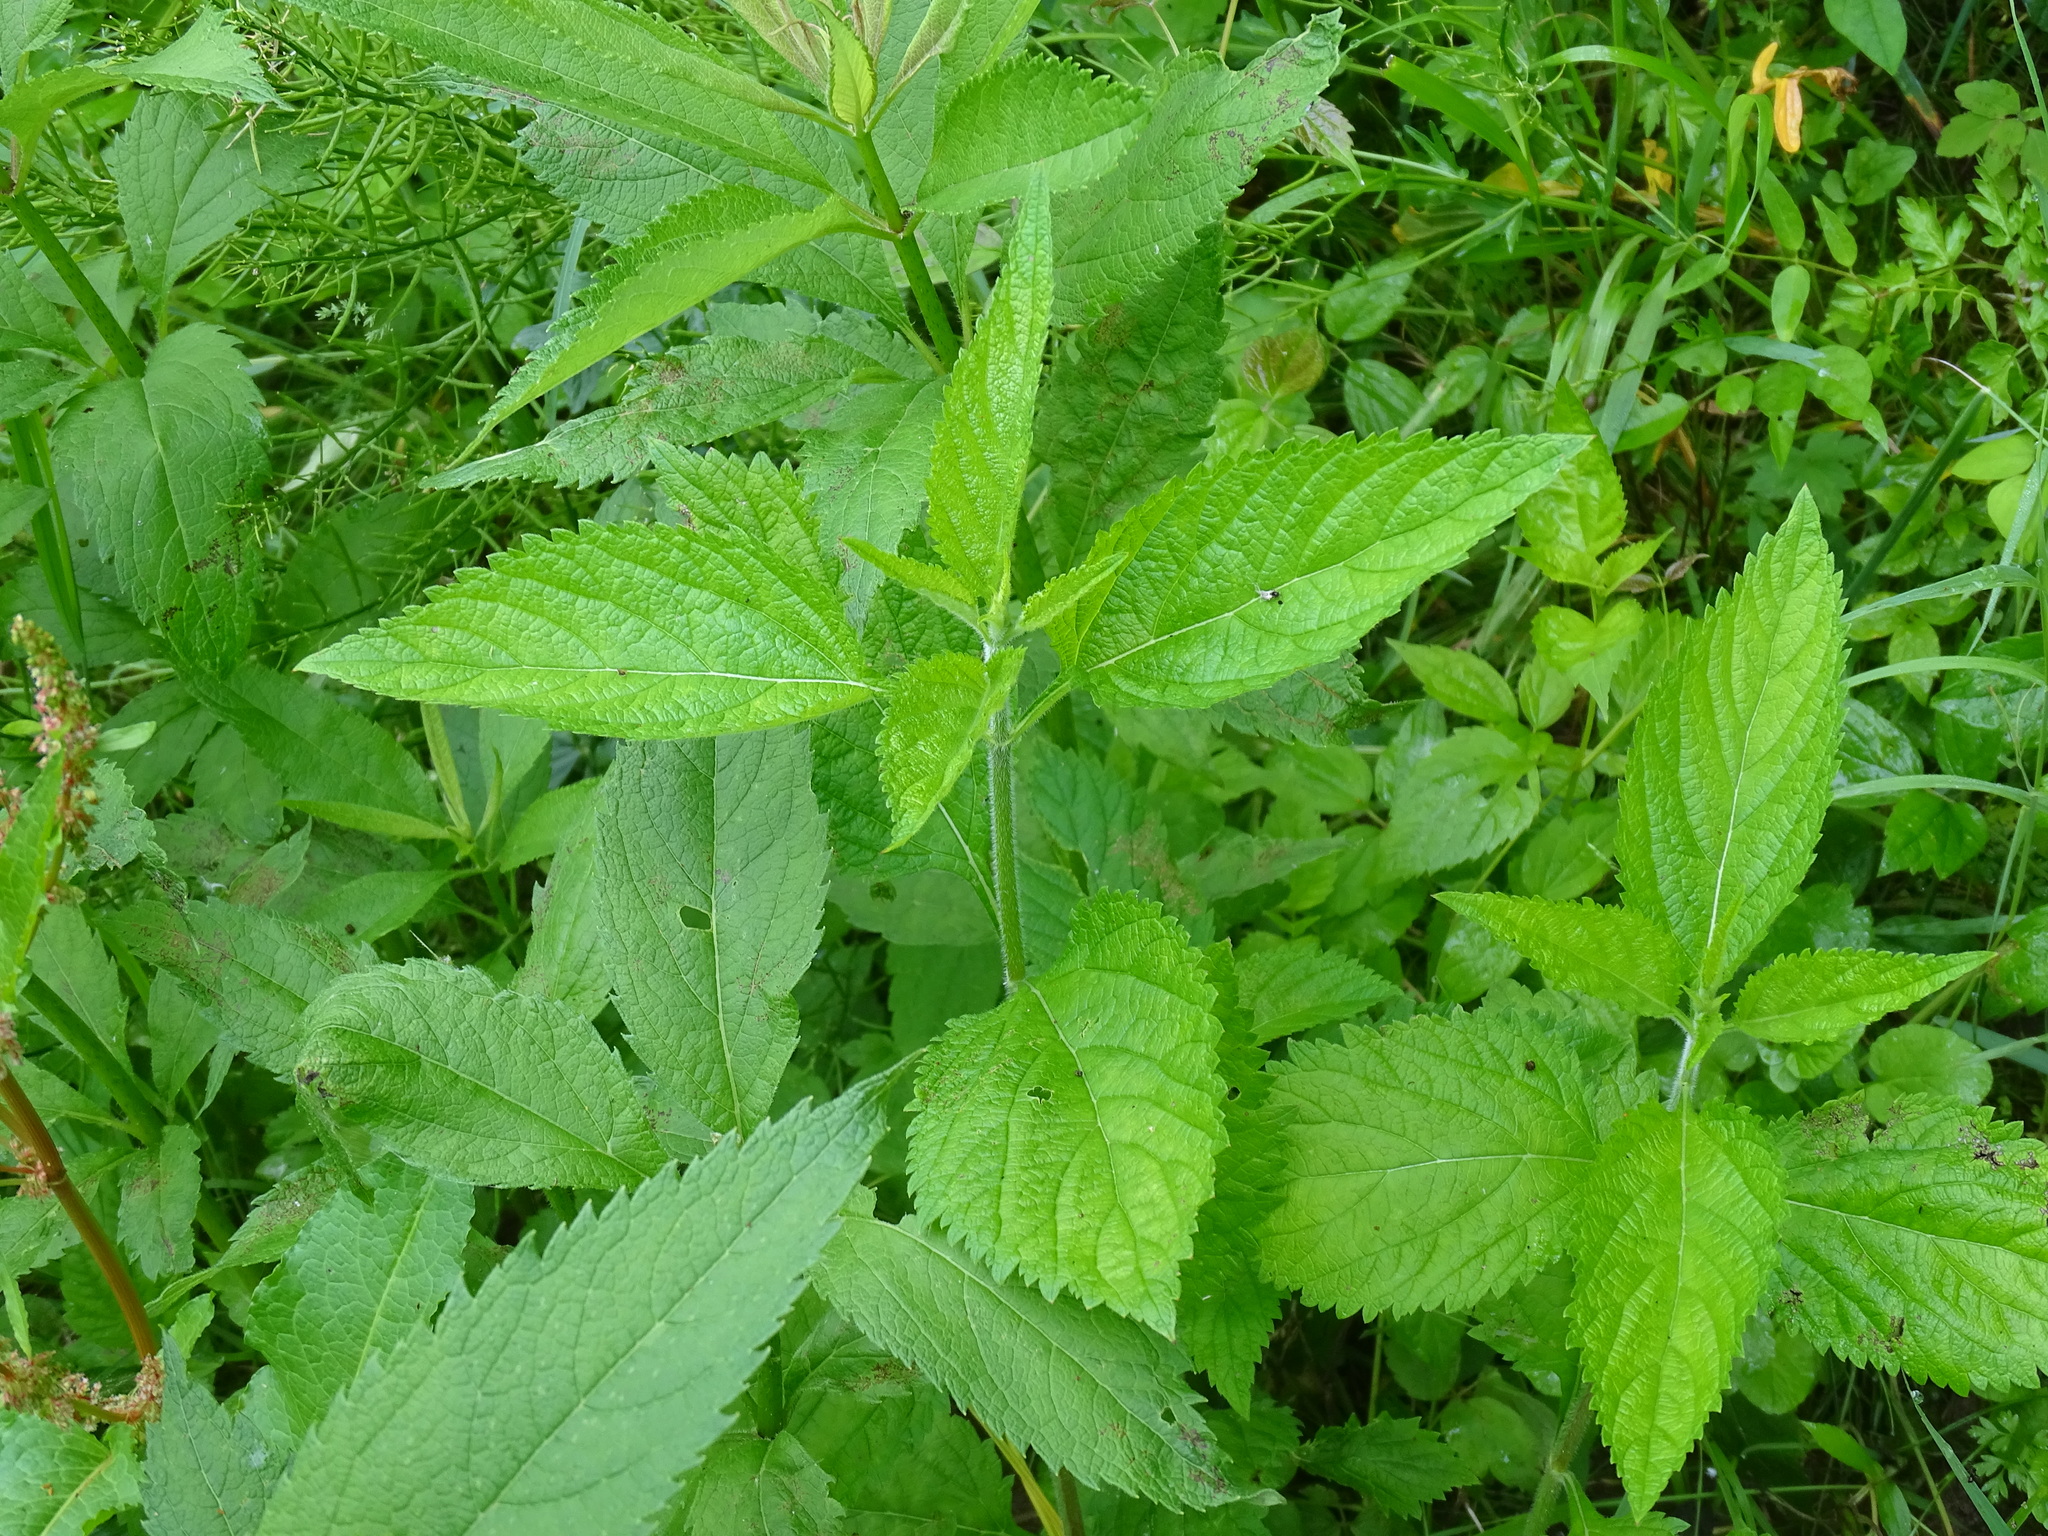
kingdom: Plantae
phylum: Tracheophyta
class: Magnoliopsida
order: Lamiales
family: Verbenaceae
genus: Verbena
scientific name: Verbena urticifolia
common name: Nettle-leaved vervain
